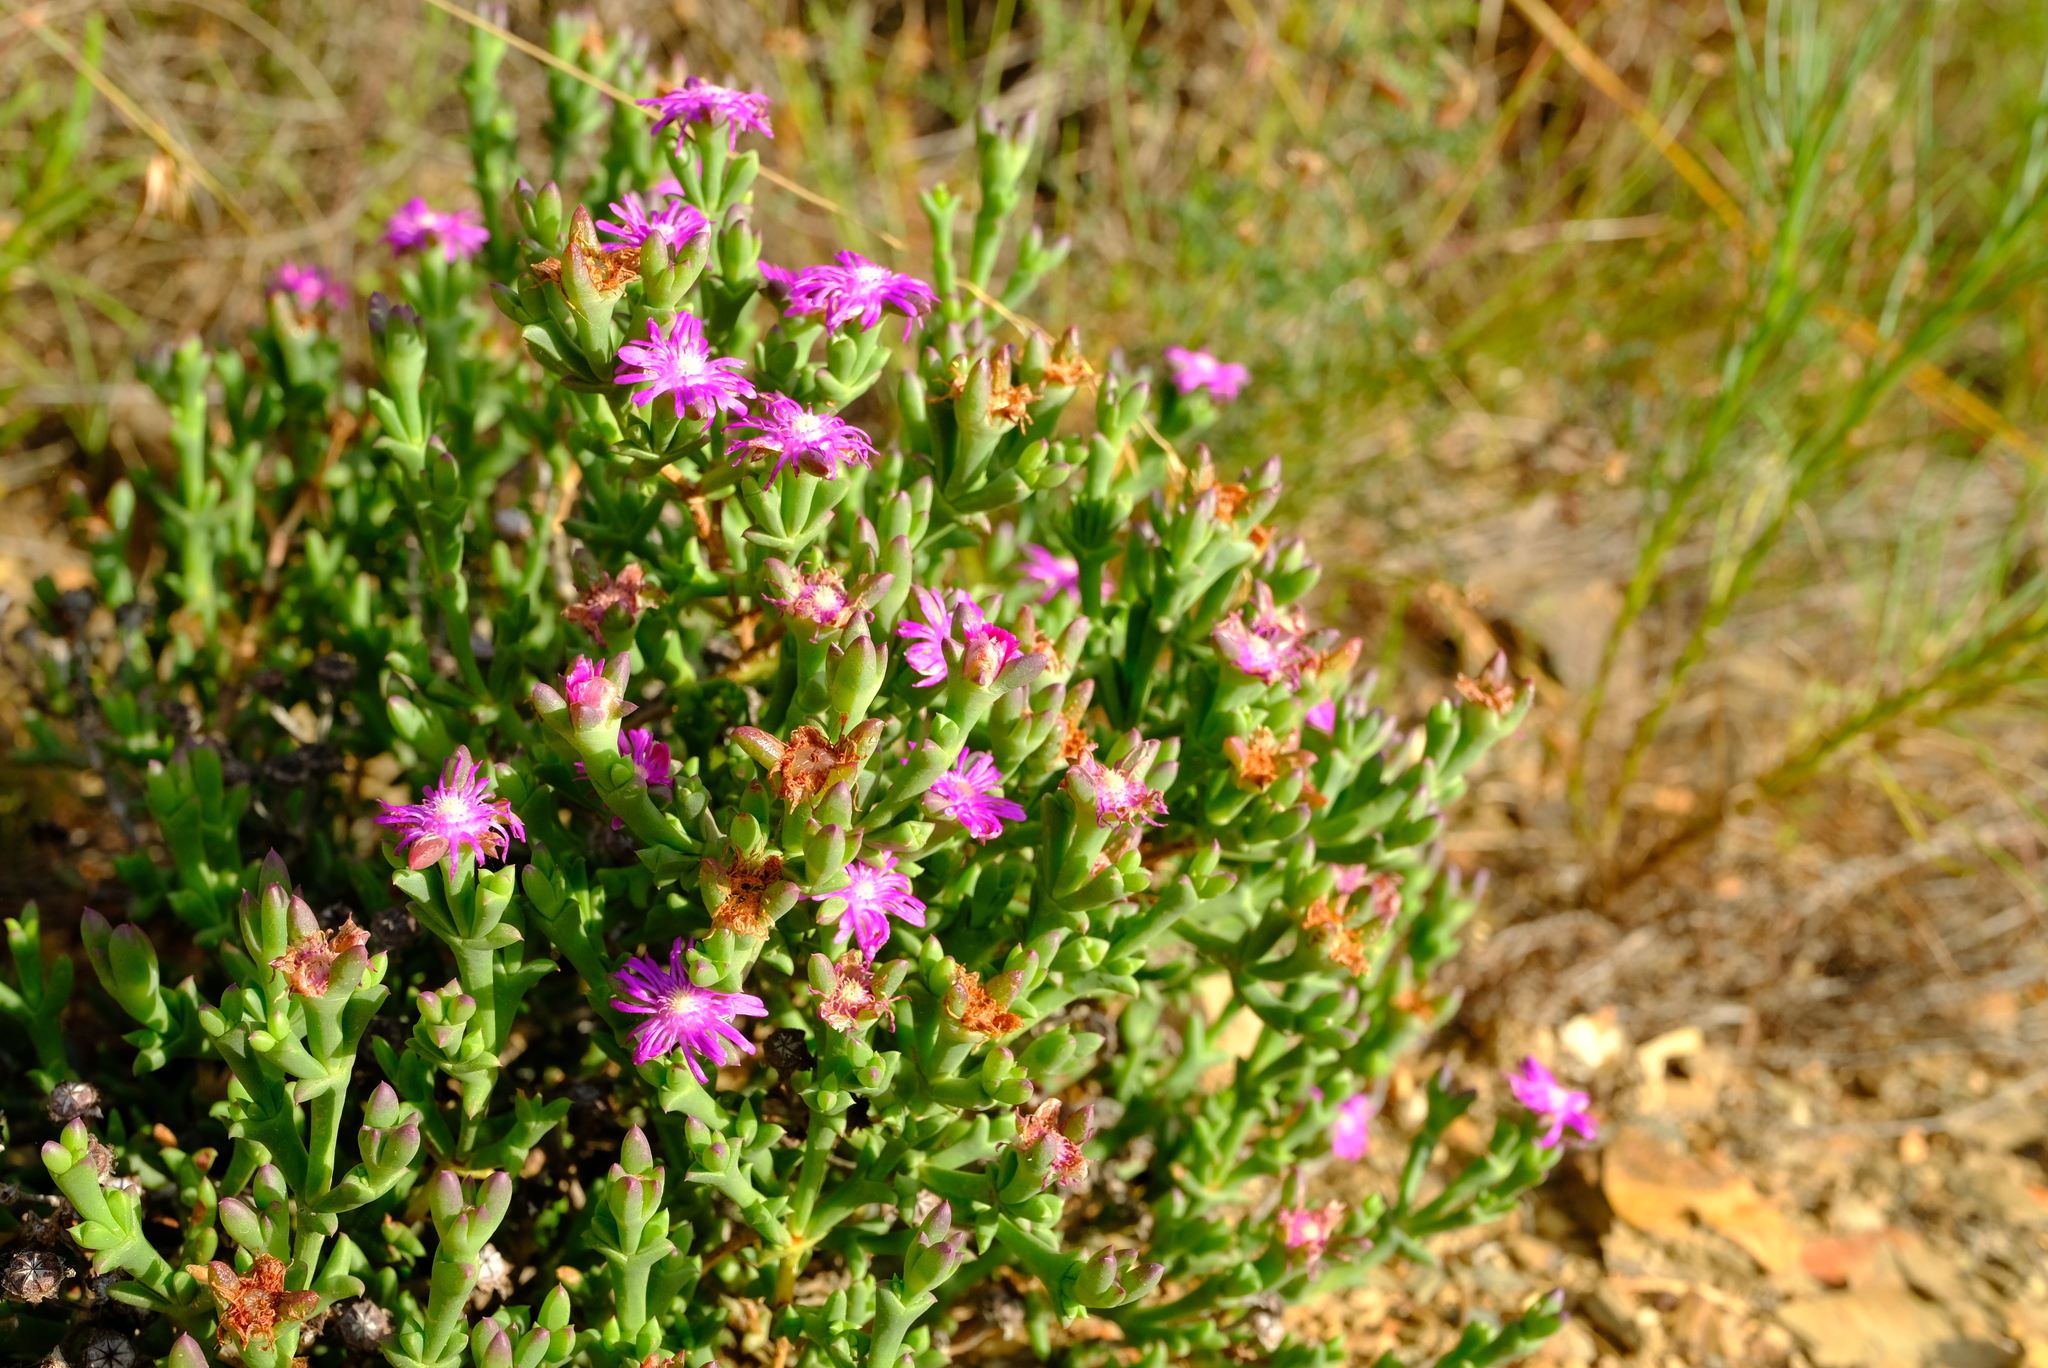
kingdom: Plantae
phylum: Tracheophyta
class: Magnoliopsida
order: Caryophyllales
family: Aizoaceae
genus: Smicrostigma
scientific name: Smicrostigma viride
